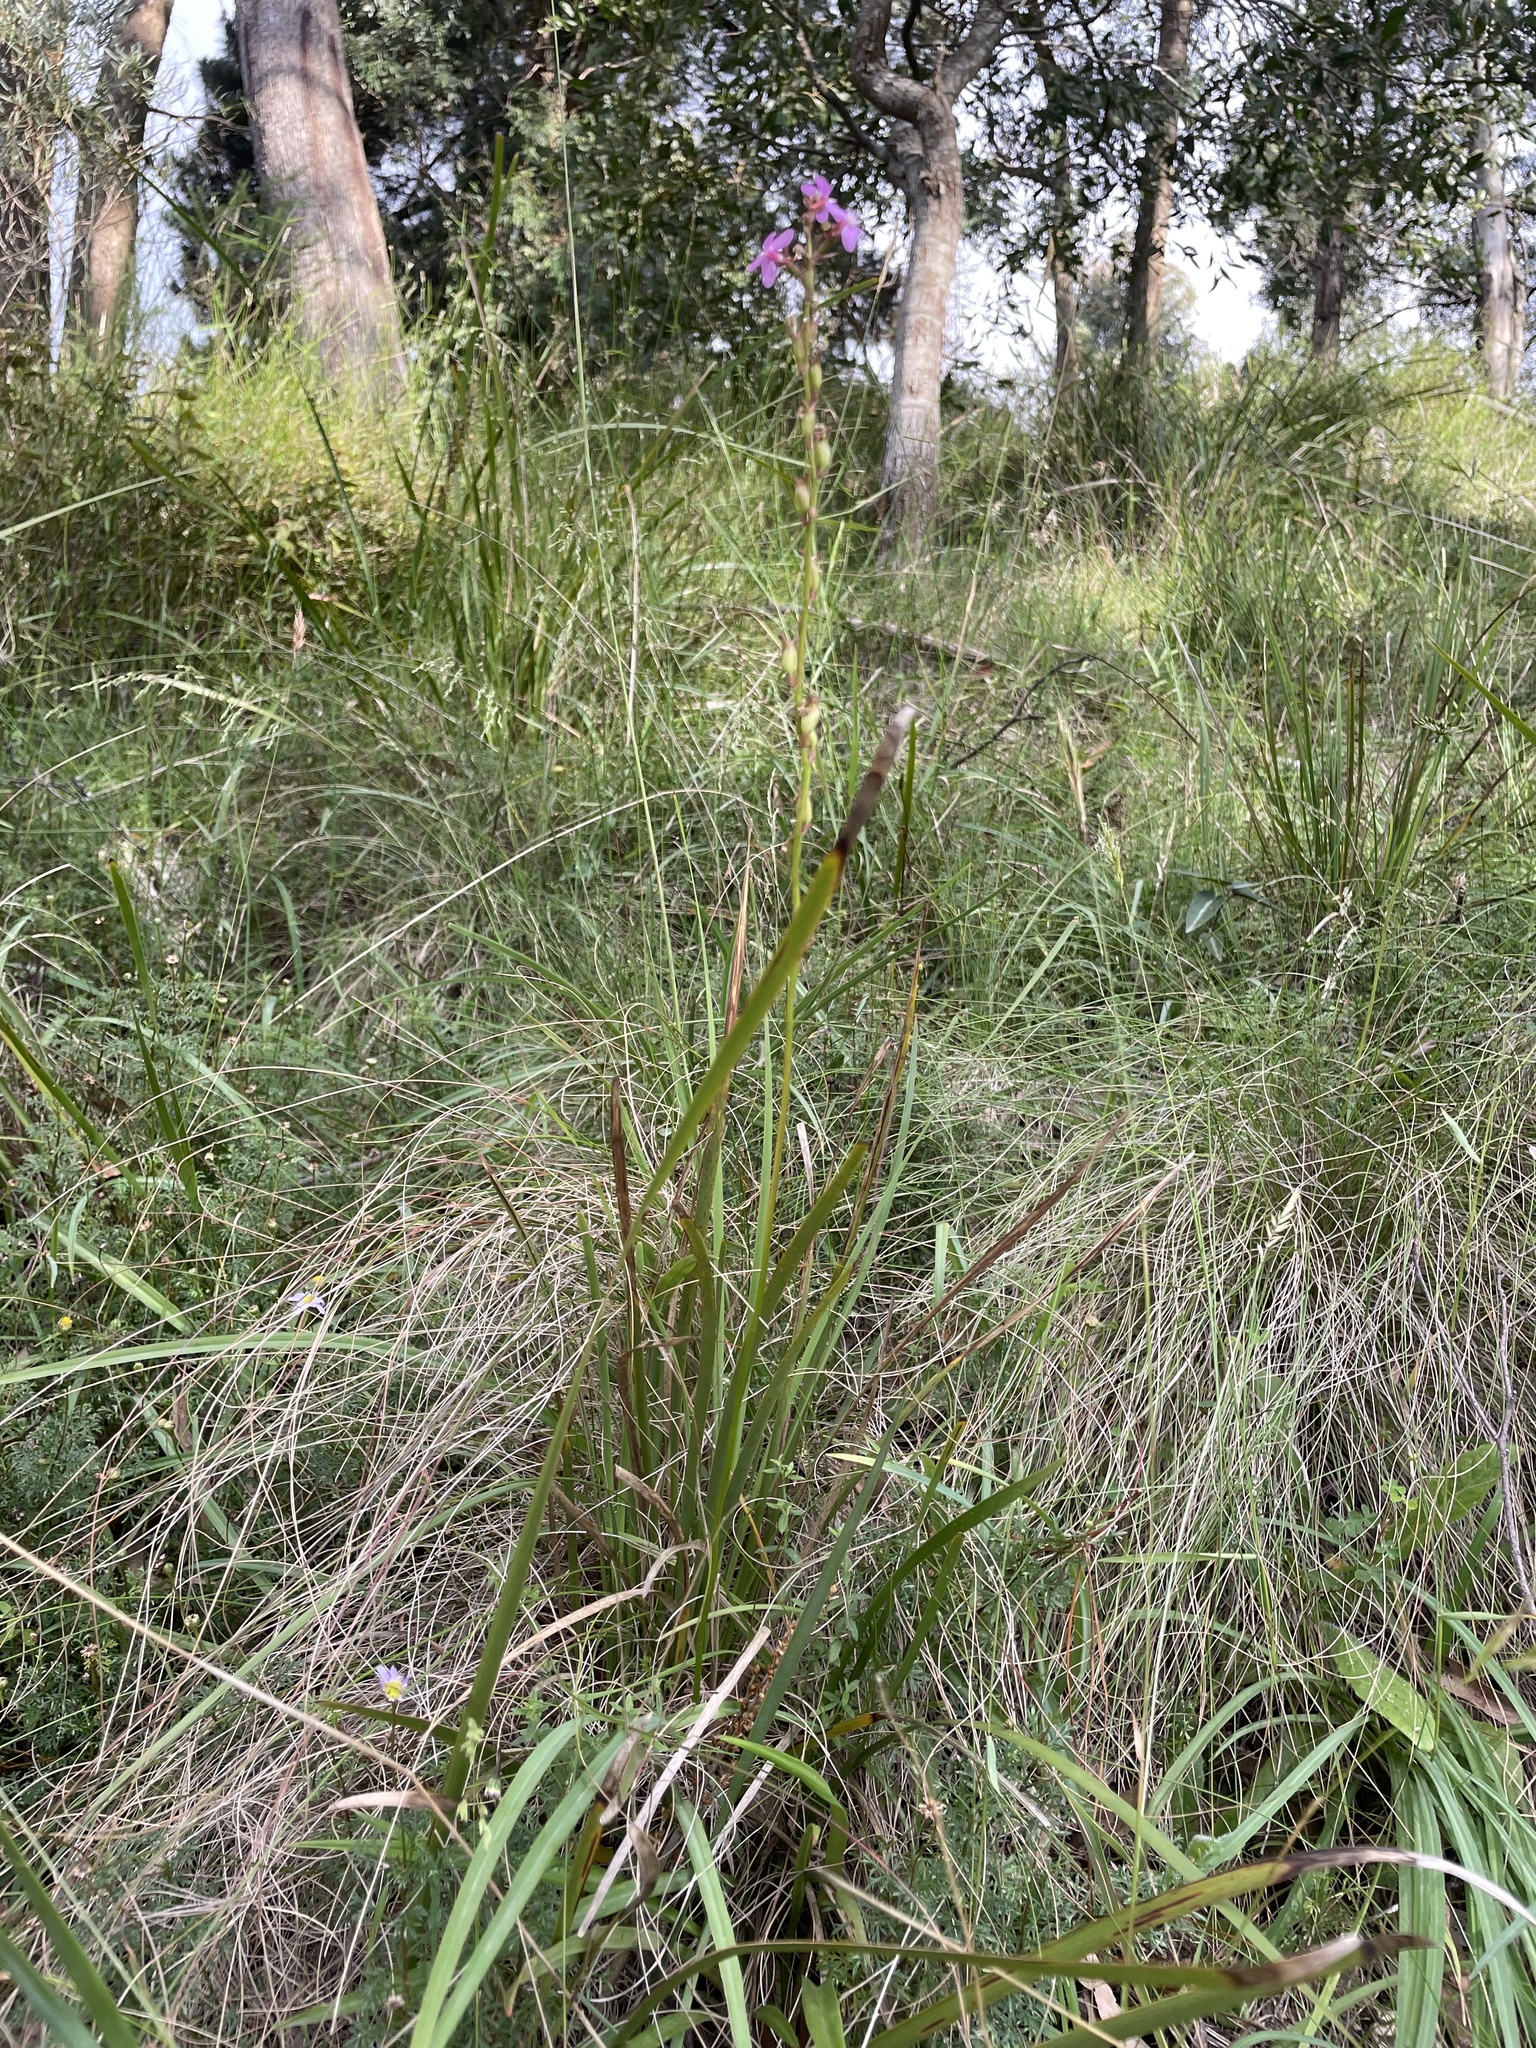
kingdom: Plantae
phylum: Tracheophyta
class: Magnoliopsida
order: Asterales
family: Stylidiaceae
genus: Stylidium
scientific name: Stylidium graminifolium
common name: Grass triggerplant
